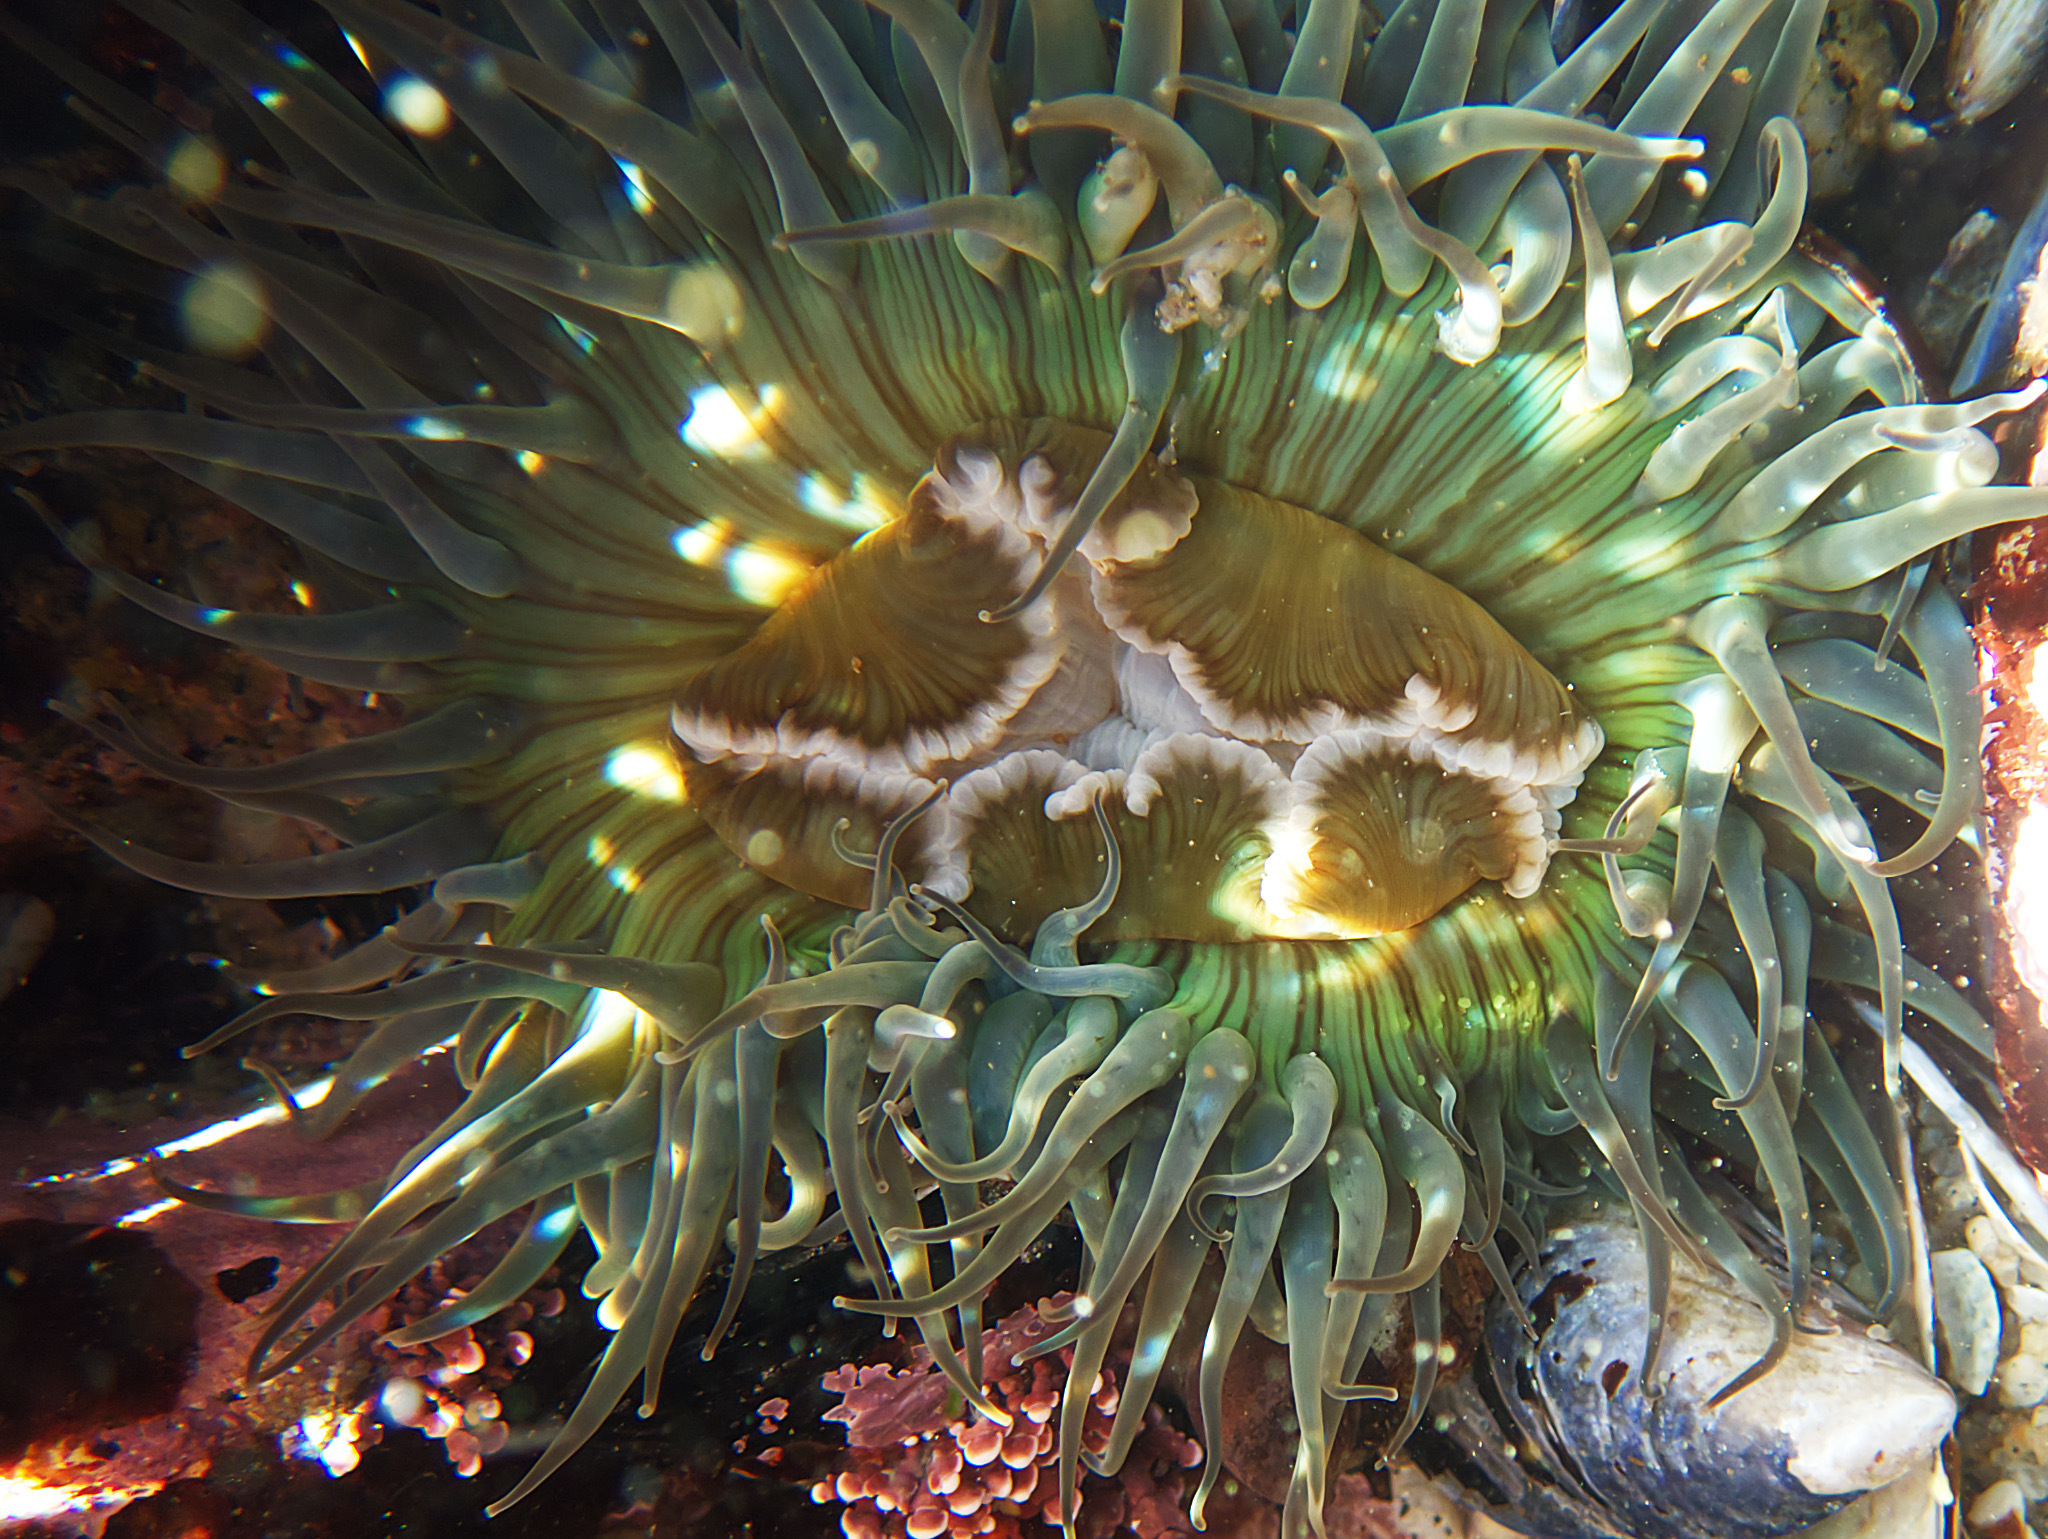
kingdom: Animalia
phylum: Cnidaria
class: Anthozoa
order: Actiniaria
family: Actiniidae
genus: Anthopleura
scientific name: Anthopleura sola
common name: Sun anemone
